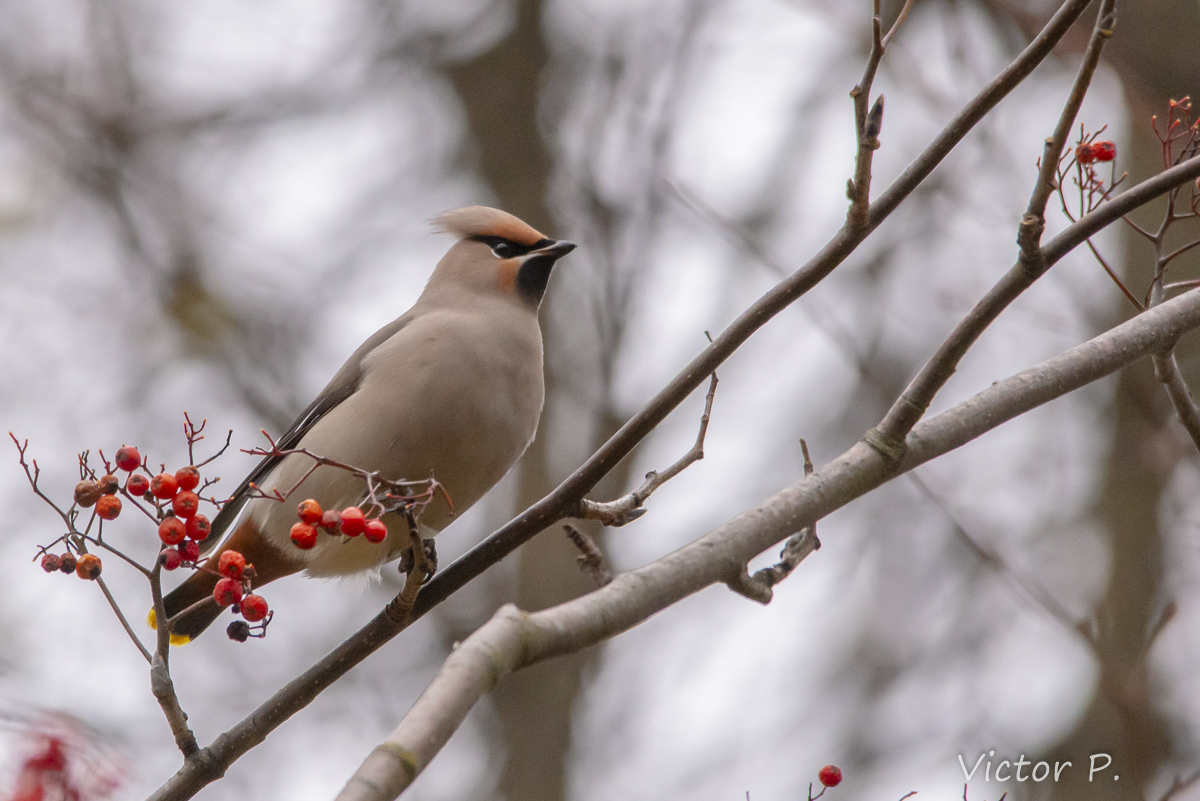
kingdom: Animalia
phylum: Chordata
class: Aves
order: Passeriformes
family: Bombycillidae
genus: Bombycilla
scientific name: Bombycilla garrulus
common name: Bohemian waxwing
